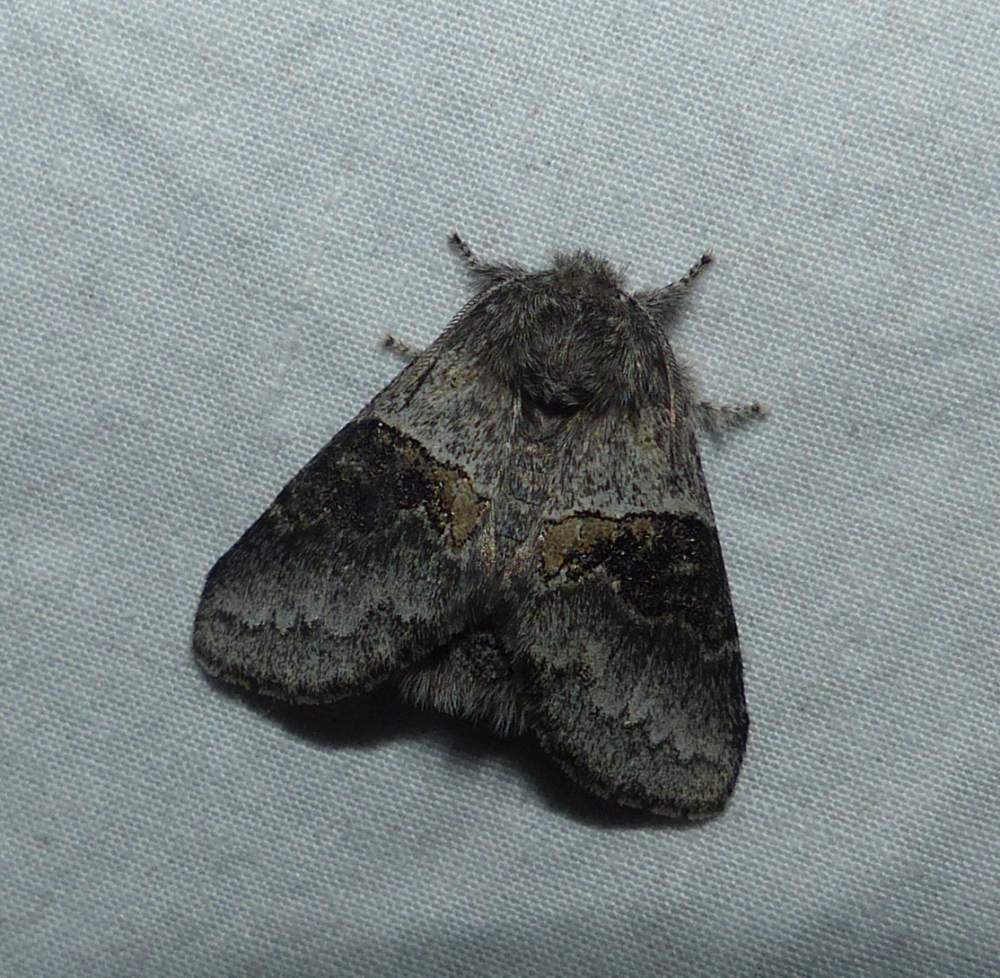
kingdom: Animalia
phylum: Arthropoda
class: Insecta
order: Lepidoptera
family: Notodontidae
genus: Gluphisia
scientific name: Gluphisia septentrionis
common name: Common gluphisia
